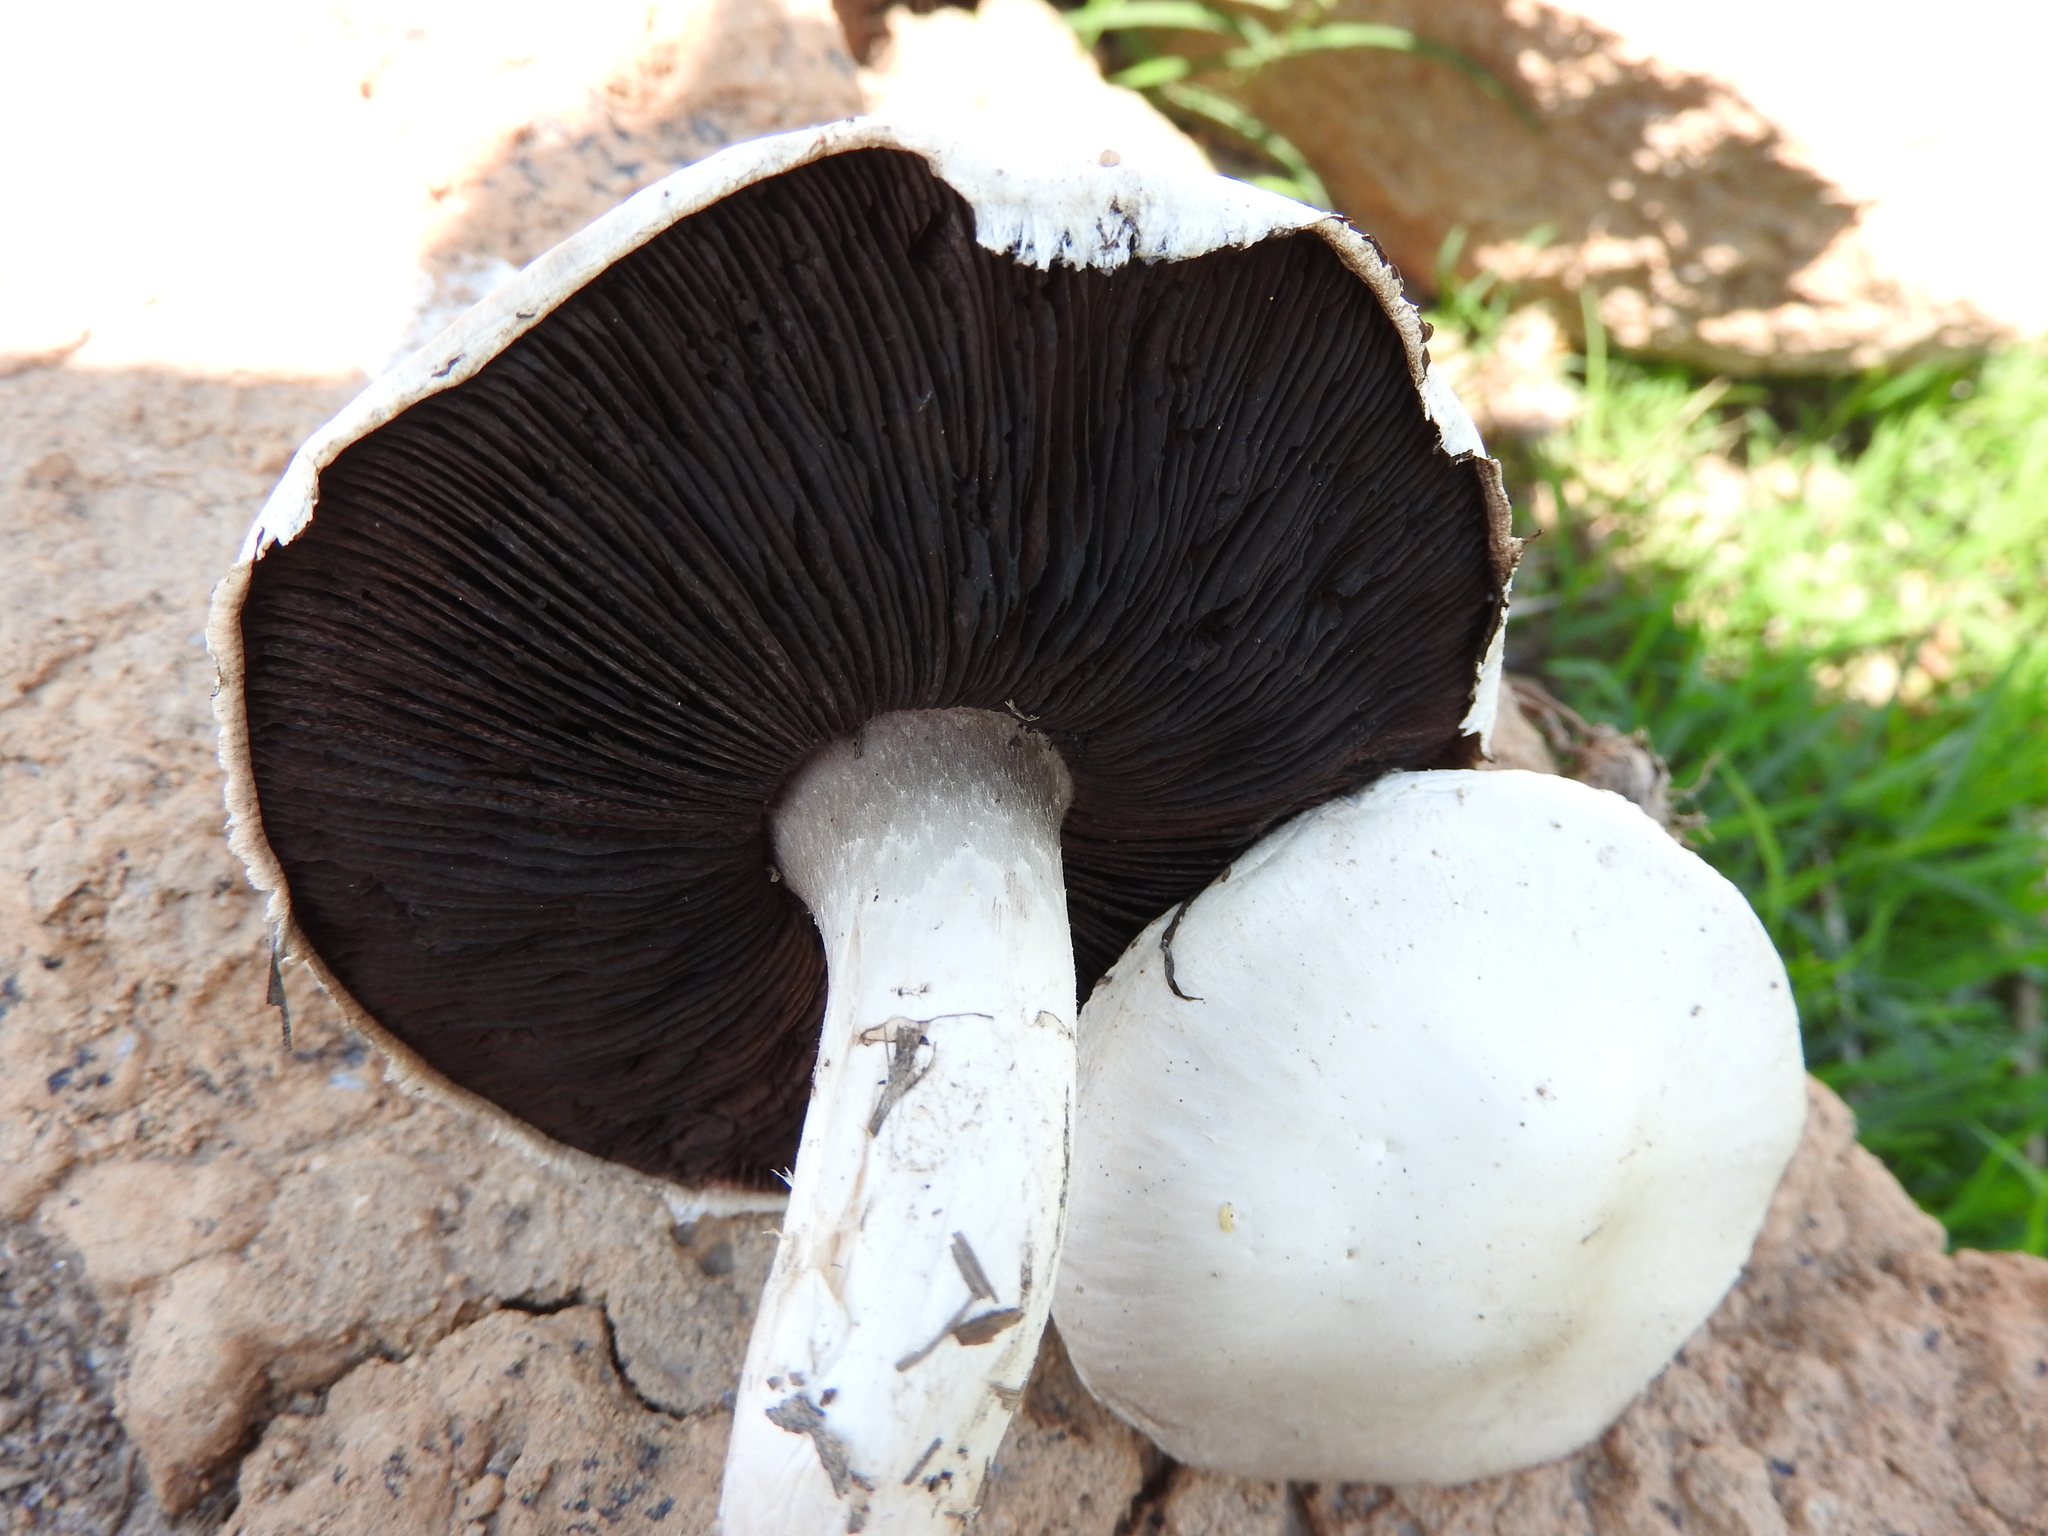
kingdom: Fungi
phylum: Basidiomycota
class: Agaricomycetes
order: Agaricales
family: Agaricaceae
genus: Agaricus
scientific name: Agaricus campestris
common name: Field mushroom
